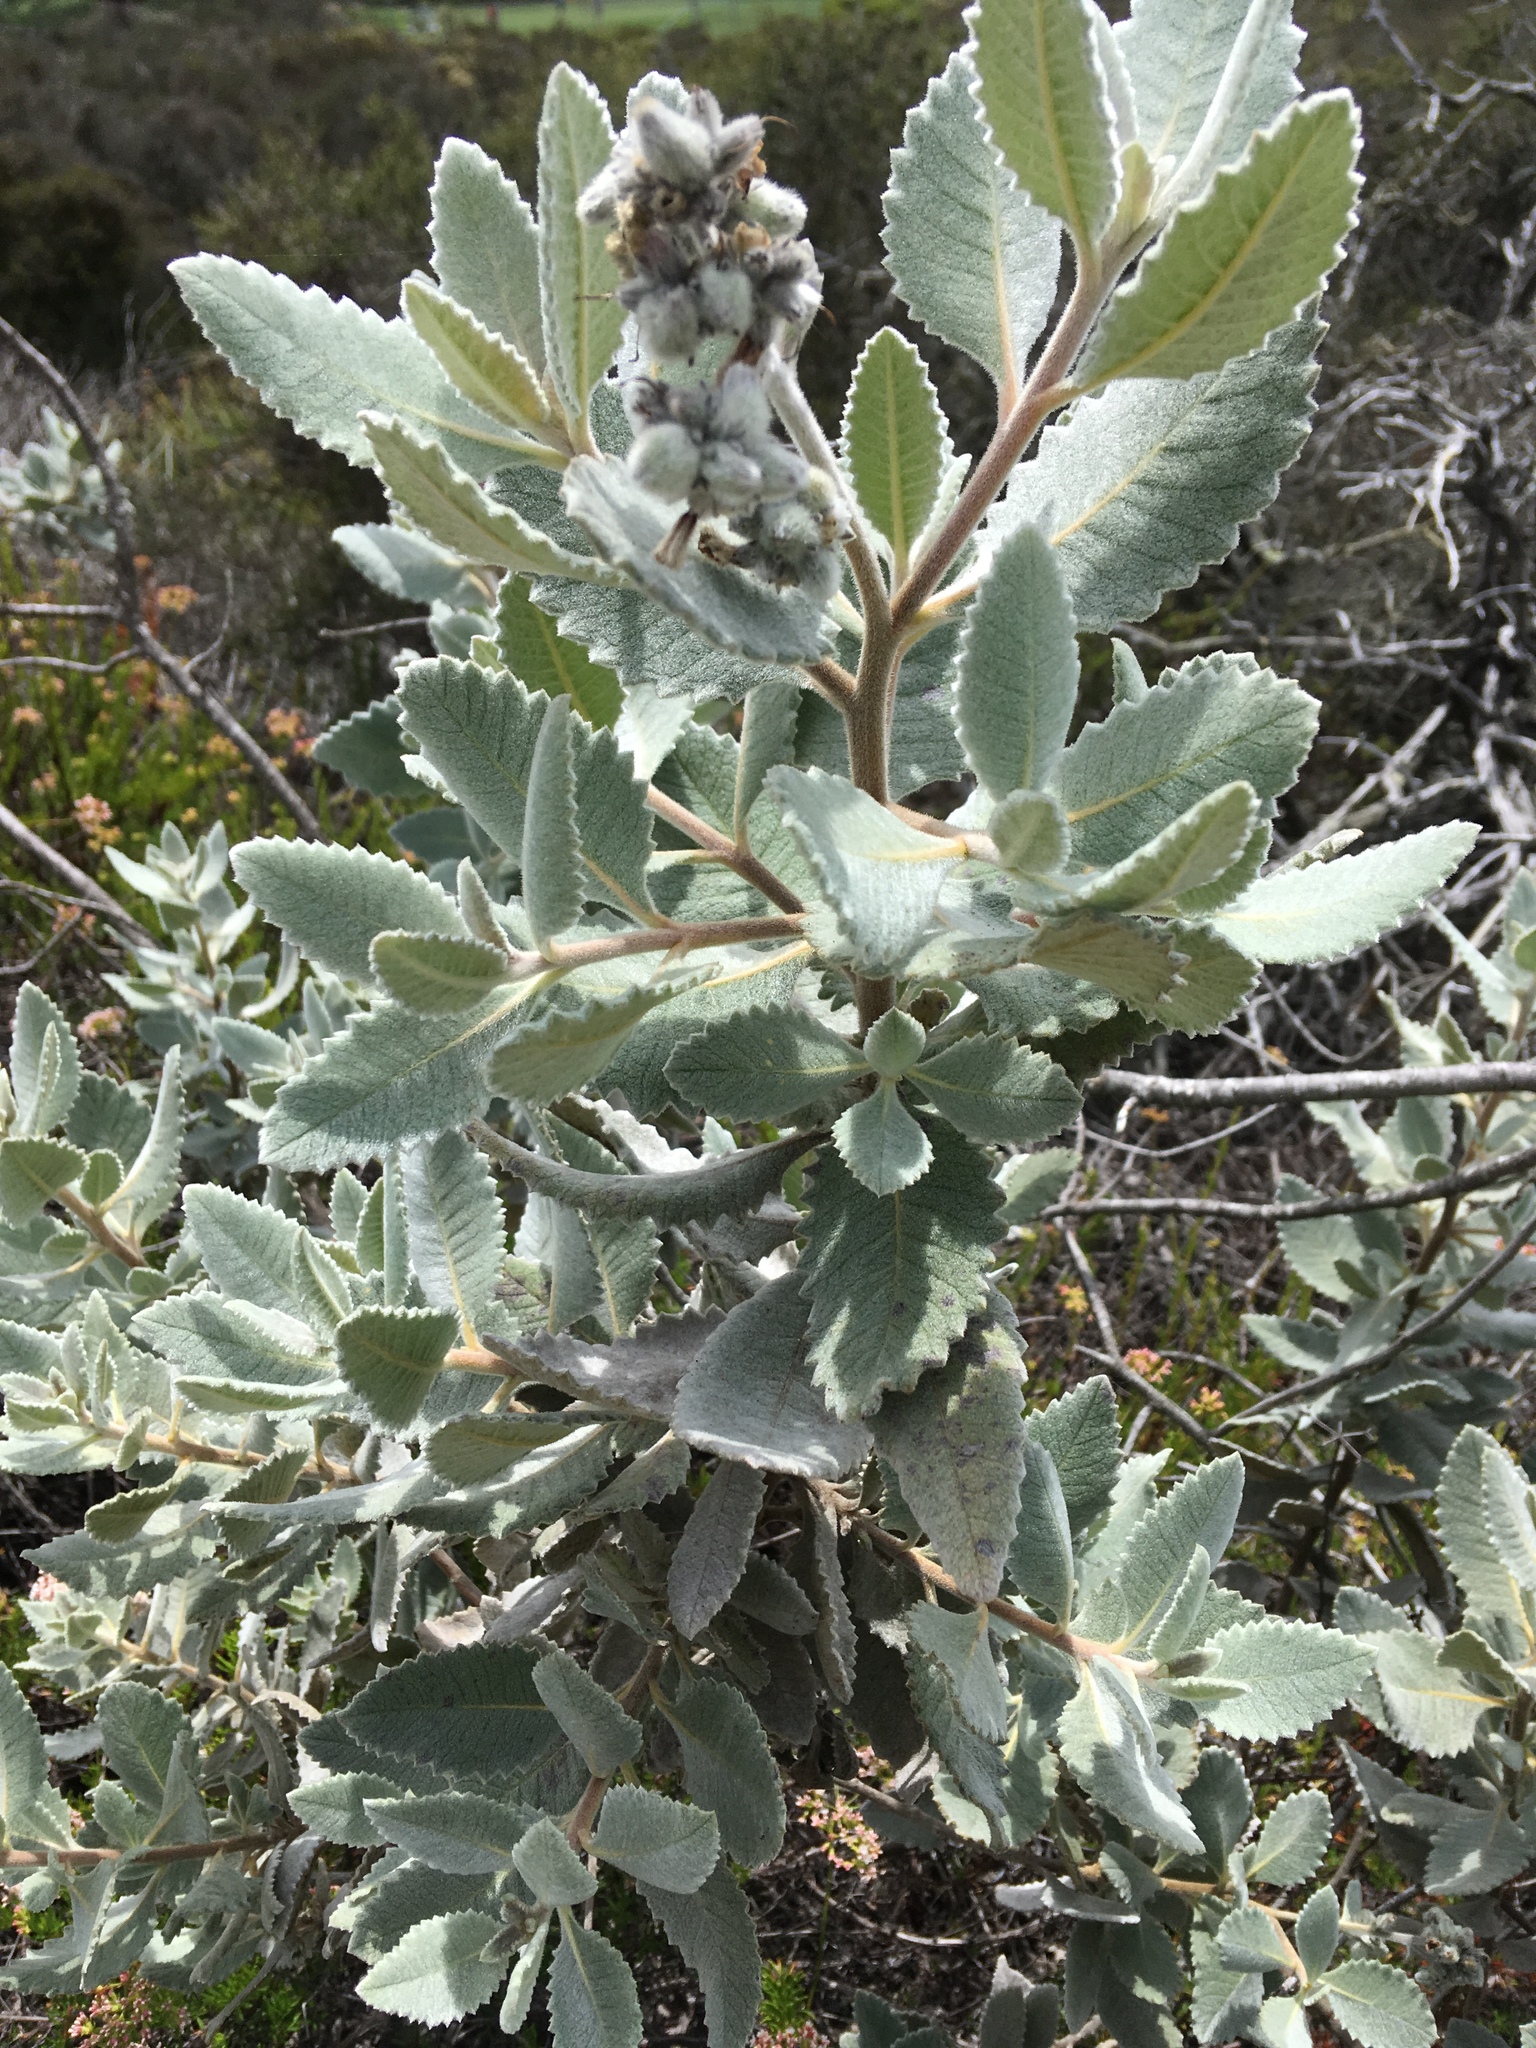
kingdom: Plantae
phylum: Tracheophyta
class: Magnoliopsida
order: Boraginales
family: Namaceae
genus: Eriodictyon
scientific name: Eriodictyon crassifolium
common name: Thick-leaf yerba-santa
